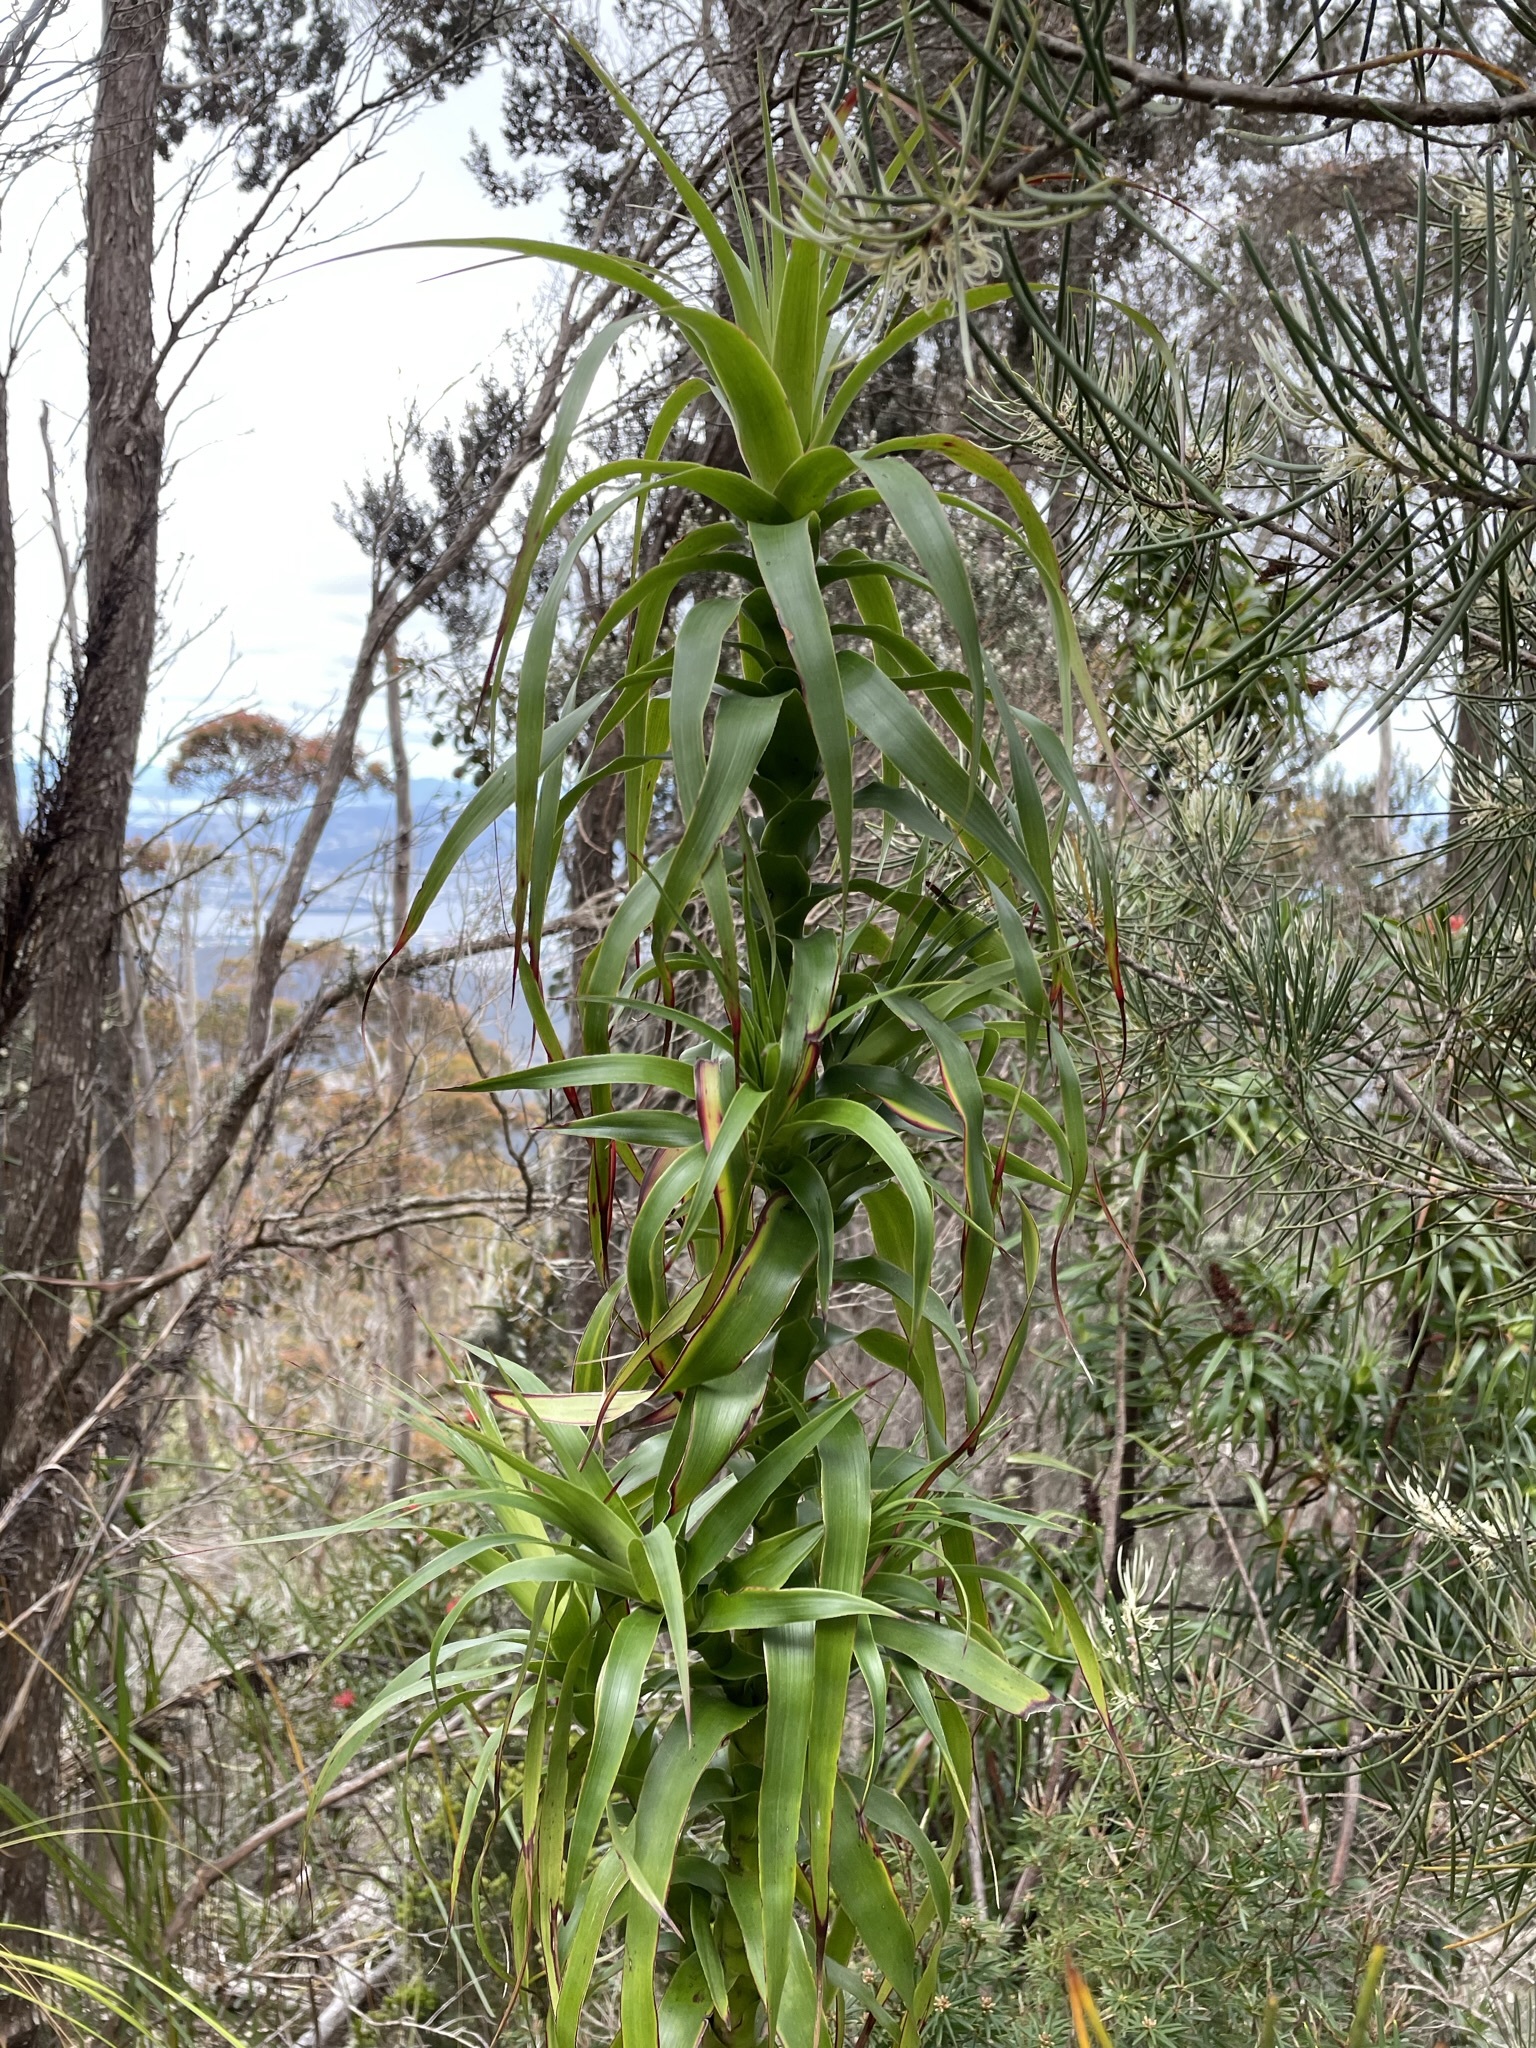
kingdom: Plantae
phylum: Tracheophyta
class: Magnoliopsida
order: Ericales
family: Ericaceae
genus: Dracophyllum
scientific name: Dracophyllum desgrazii
